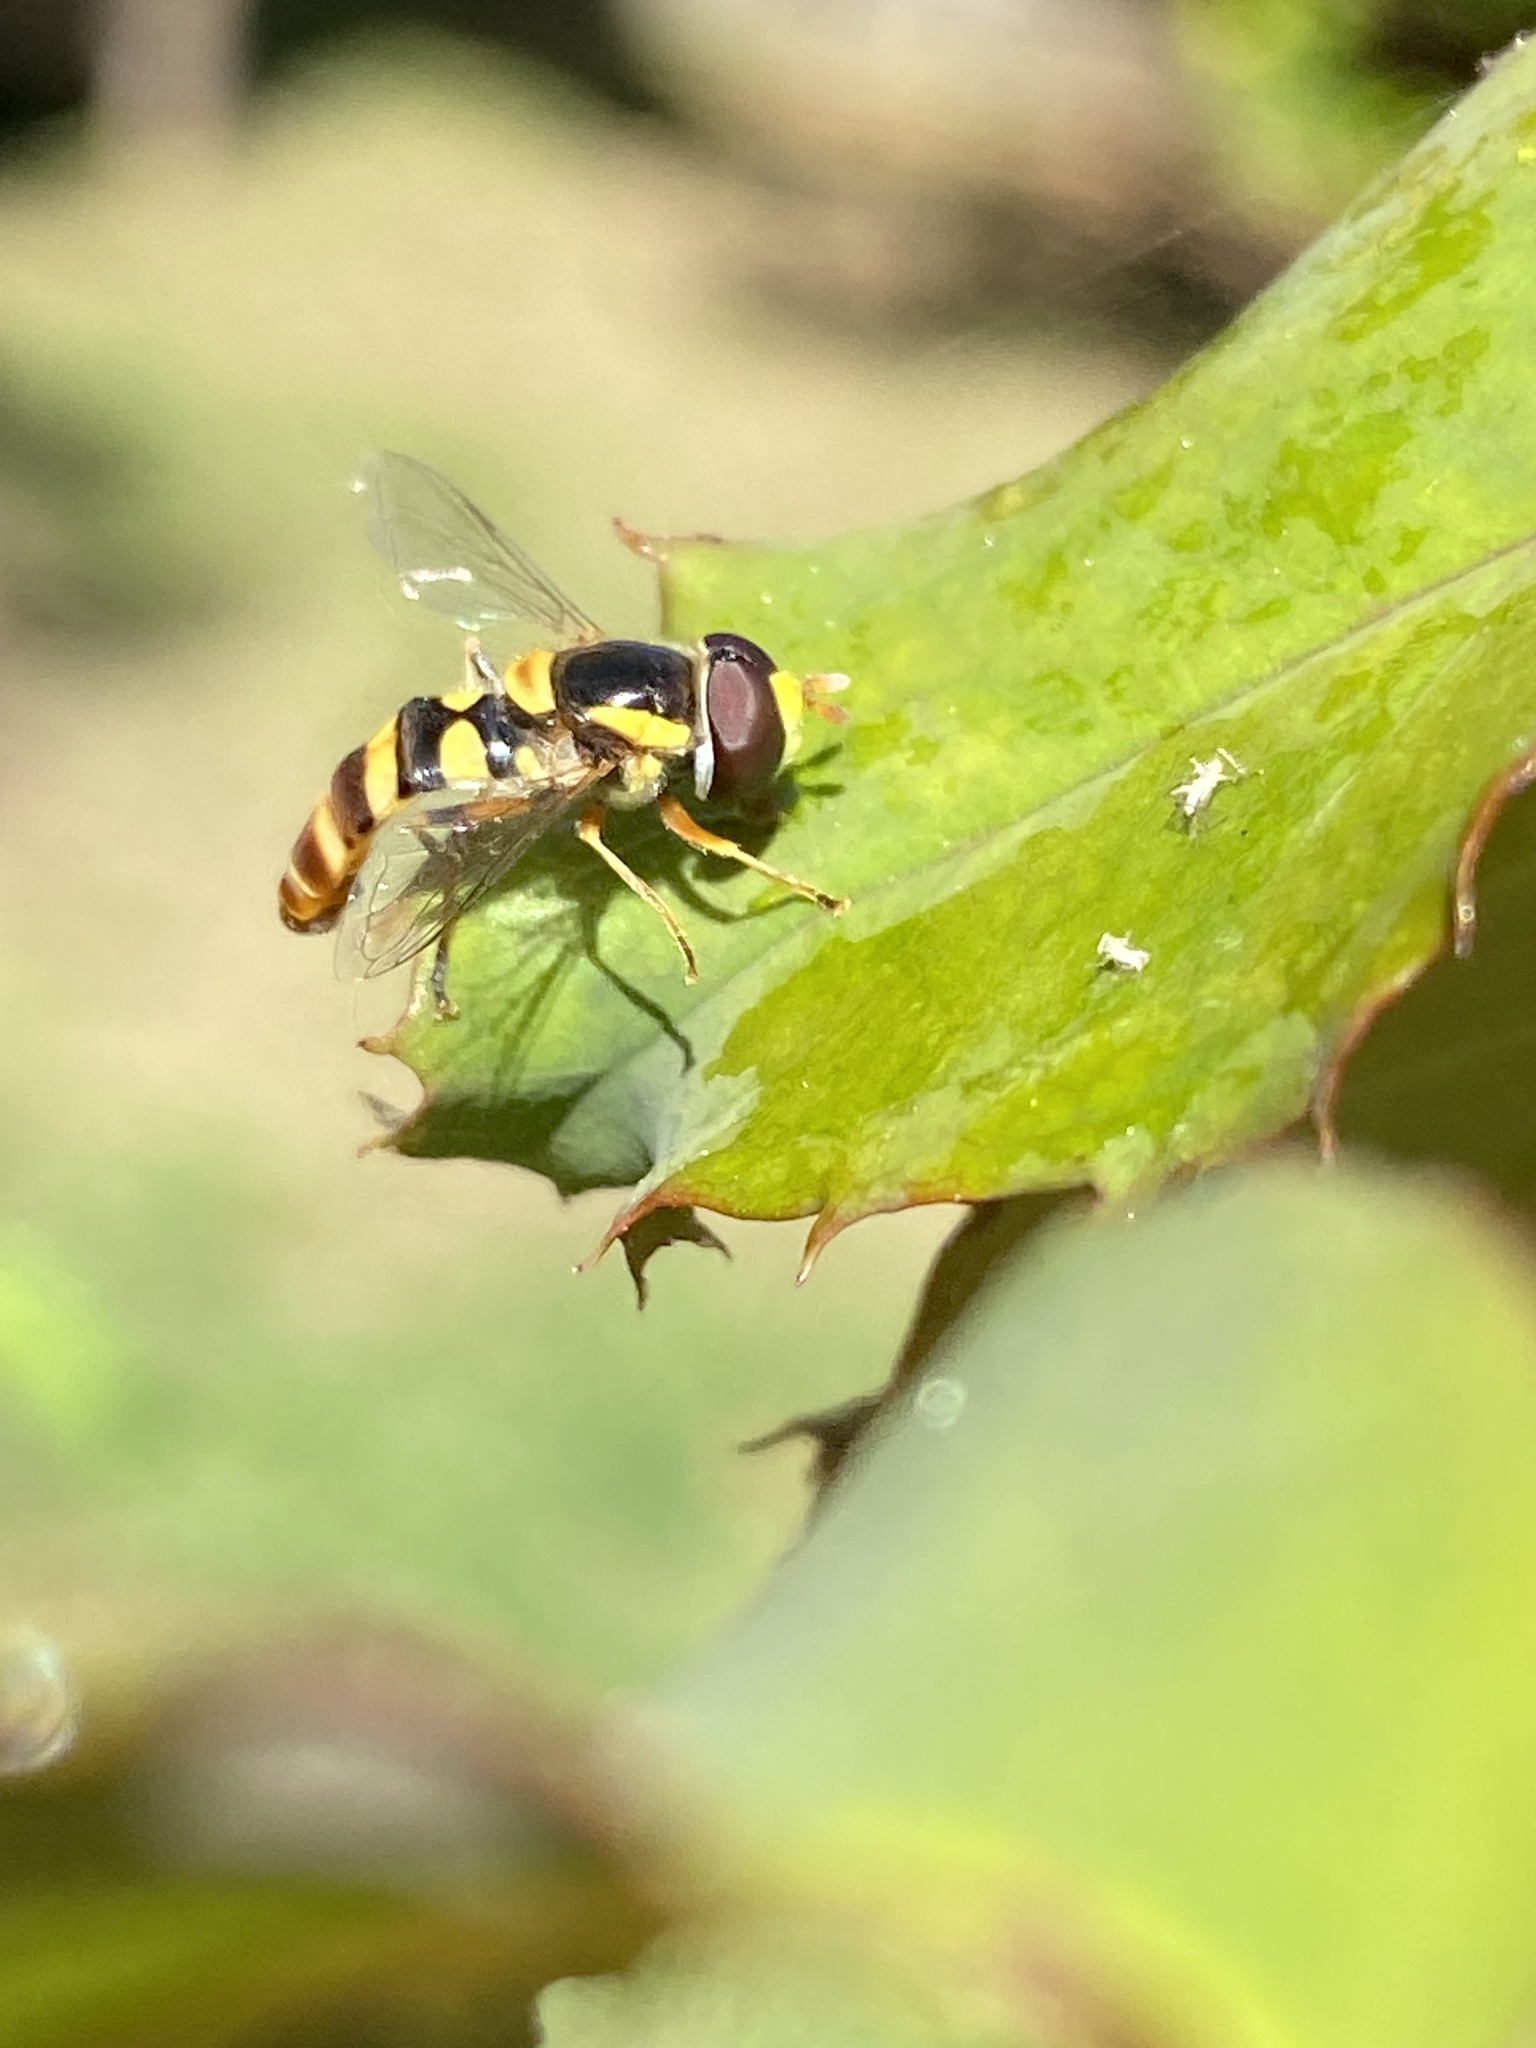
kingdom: Animalia
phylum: Arthropoda
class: Insecta
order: Diptera
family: Syrphidae
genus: Ischiodon
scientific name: Ischiodon scutellaris
